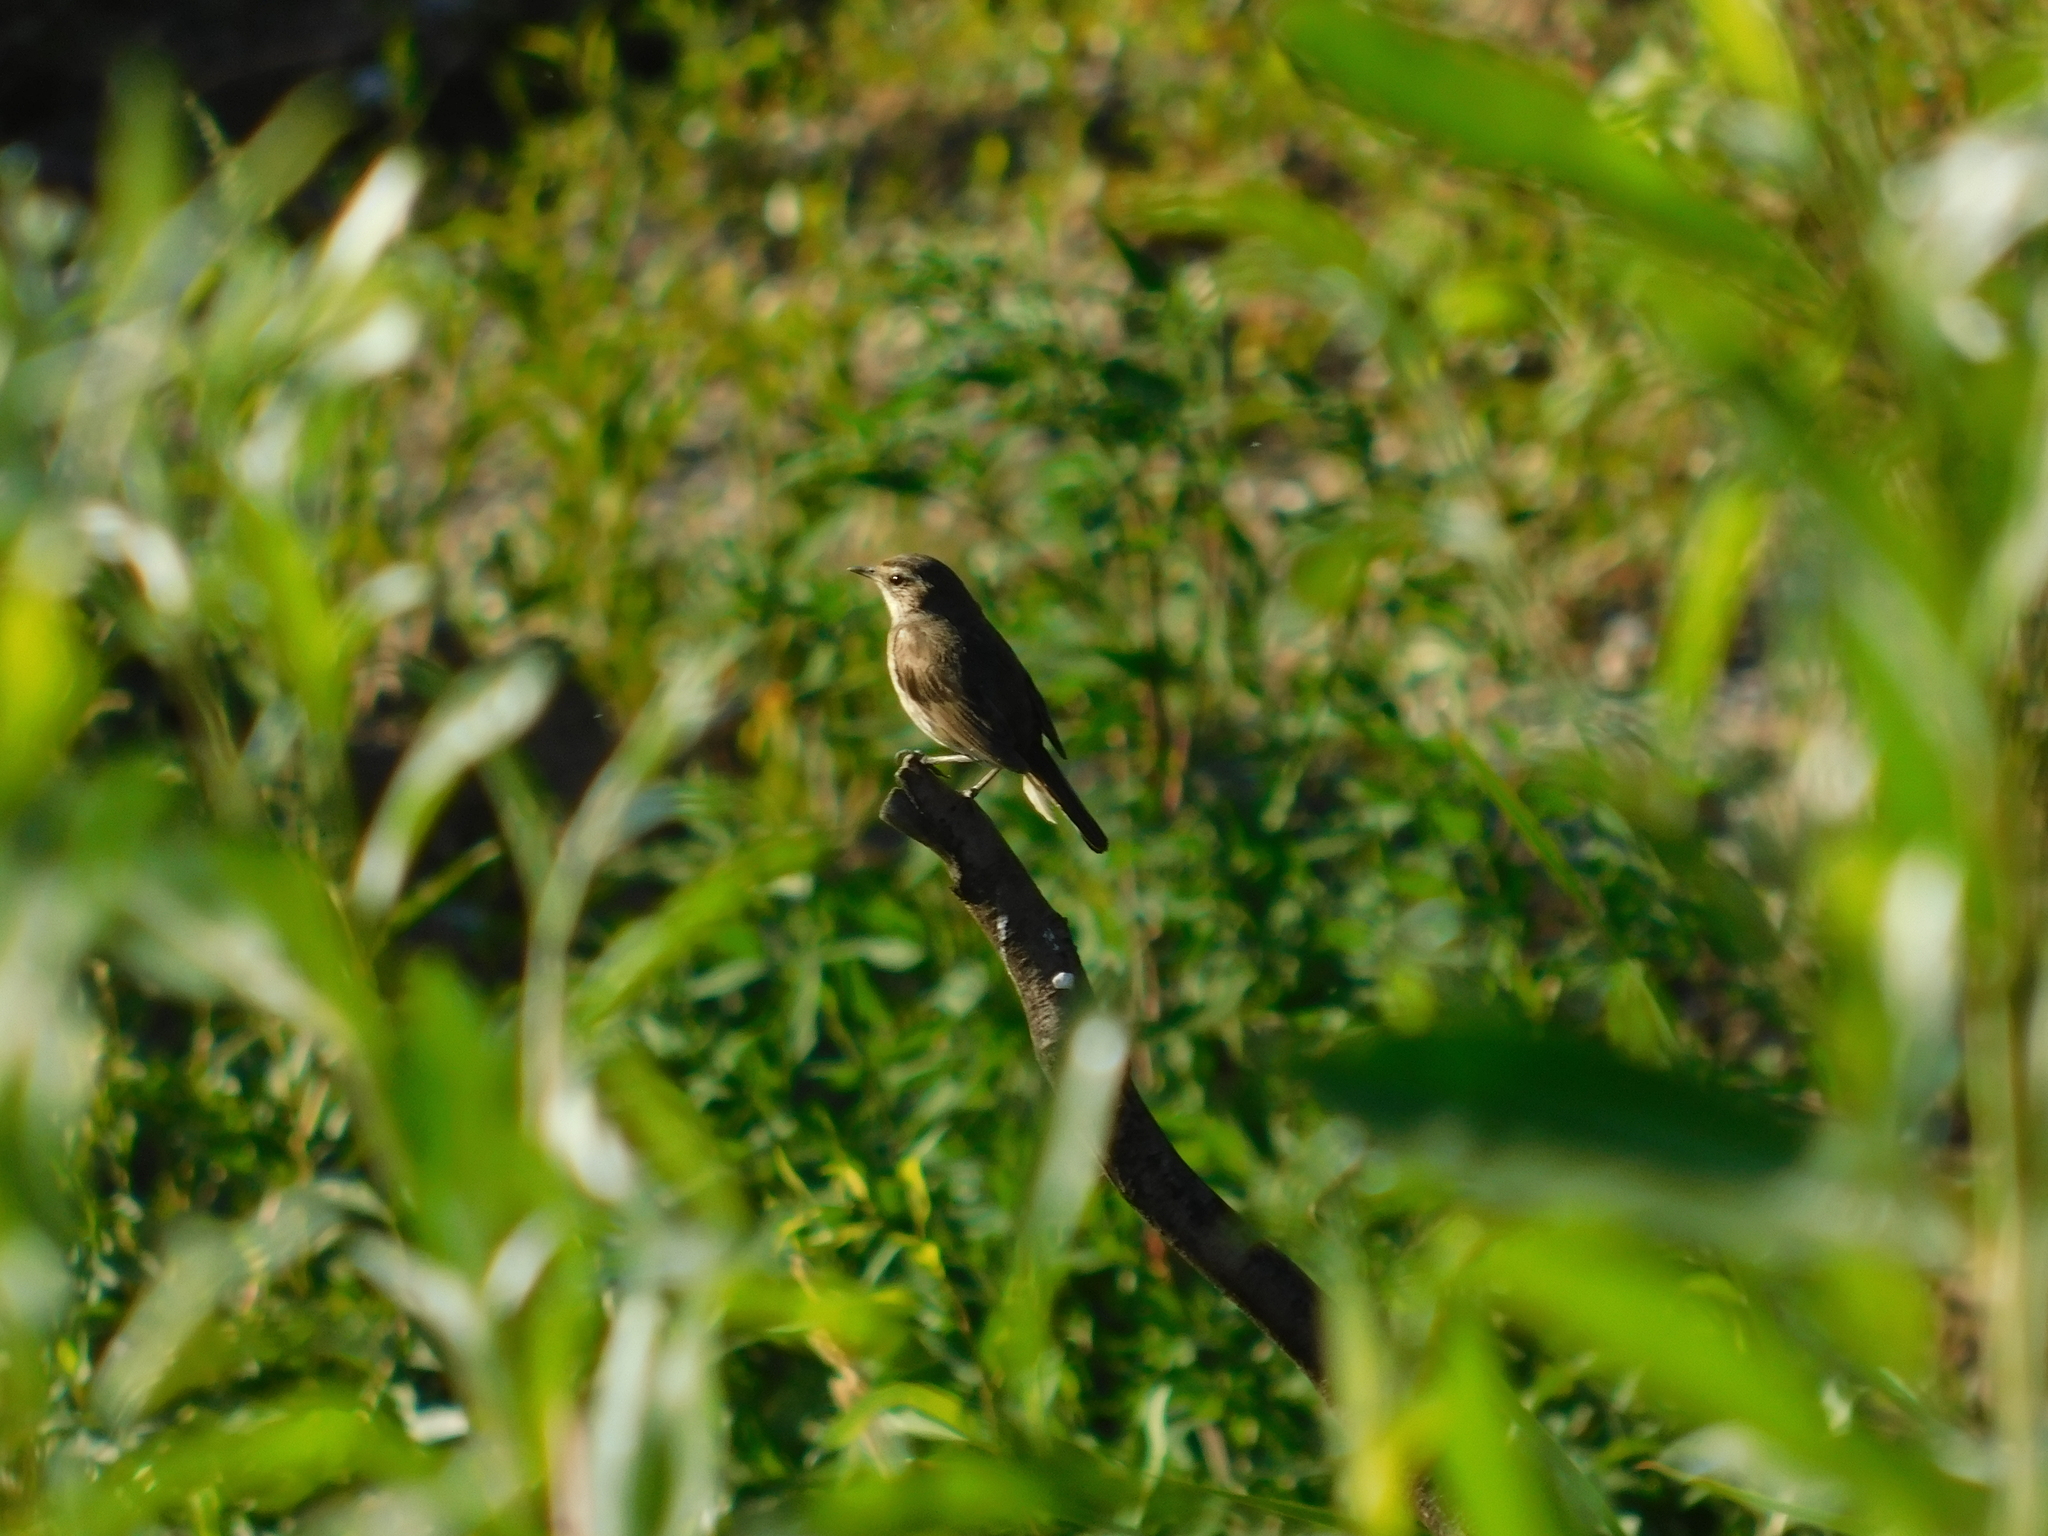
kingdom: Animalia
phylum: Chordata
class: Aves
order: Passeriformes
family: Acrocephalidae
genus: Acrocephalus
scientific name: Acrocephalus schoenobaenus
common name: Sedge warbler
